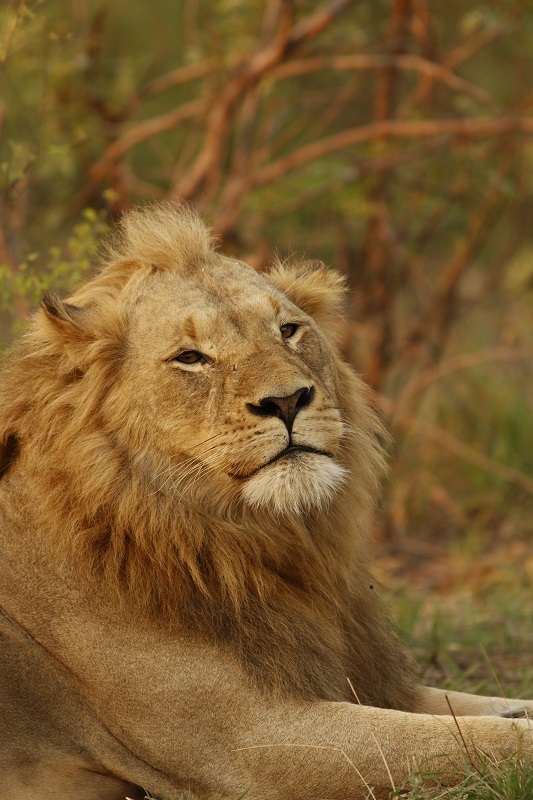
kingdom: Animalia
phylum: Chordata
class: Mammalia
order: Carnivora
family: Felidae
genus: Panthera
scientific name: Panthera leo
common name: Lion
